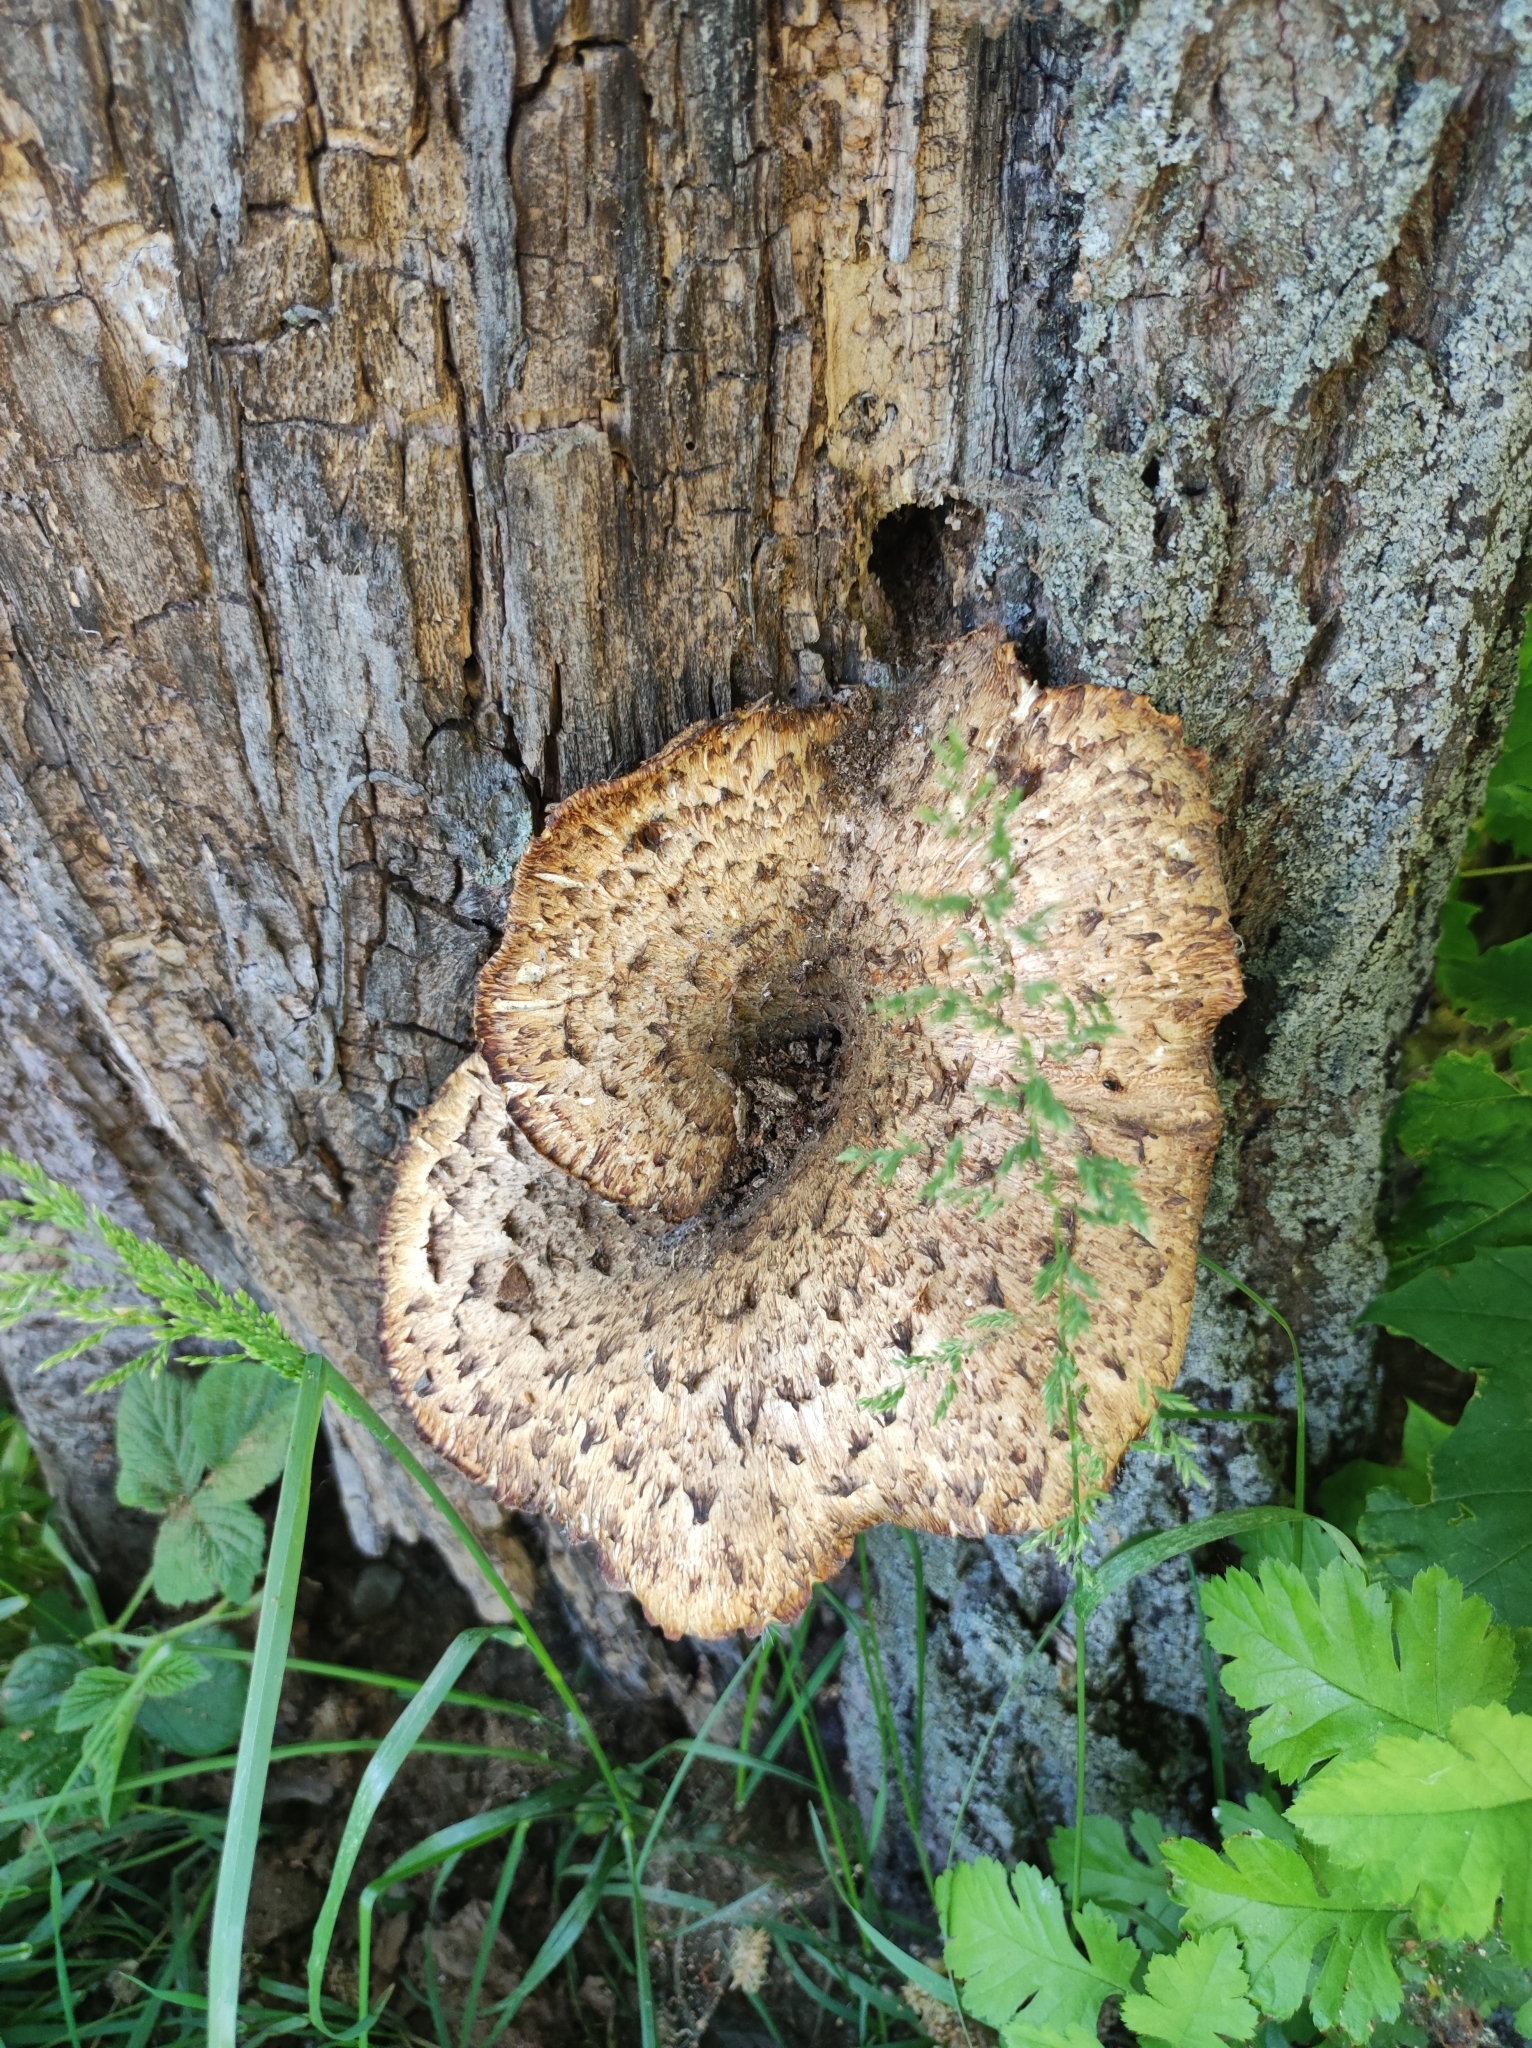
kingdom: Fungi
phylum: Basidiomycota
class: Agaricomycetes
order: Polyporales
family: Polyporaceae
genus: Cerioporus
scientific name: Cerioporus squamosus
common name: Dryad's saddle
